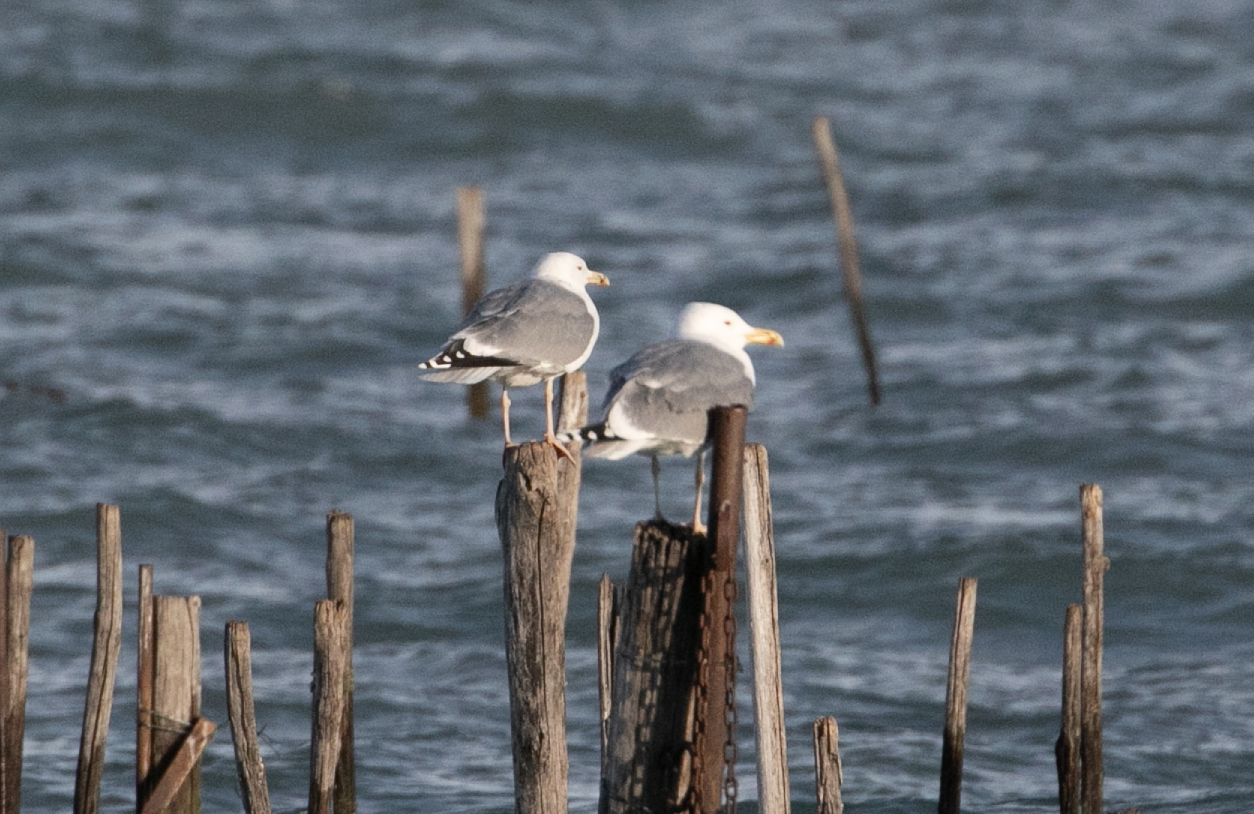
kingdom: Animalia
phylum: Chordata
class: Aves
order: Charadriiformes
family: Laridae
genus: Larus
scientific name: Larus cachinnans
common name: Caspian gull
